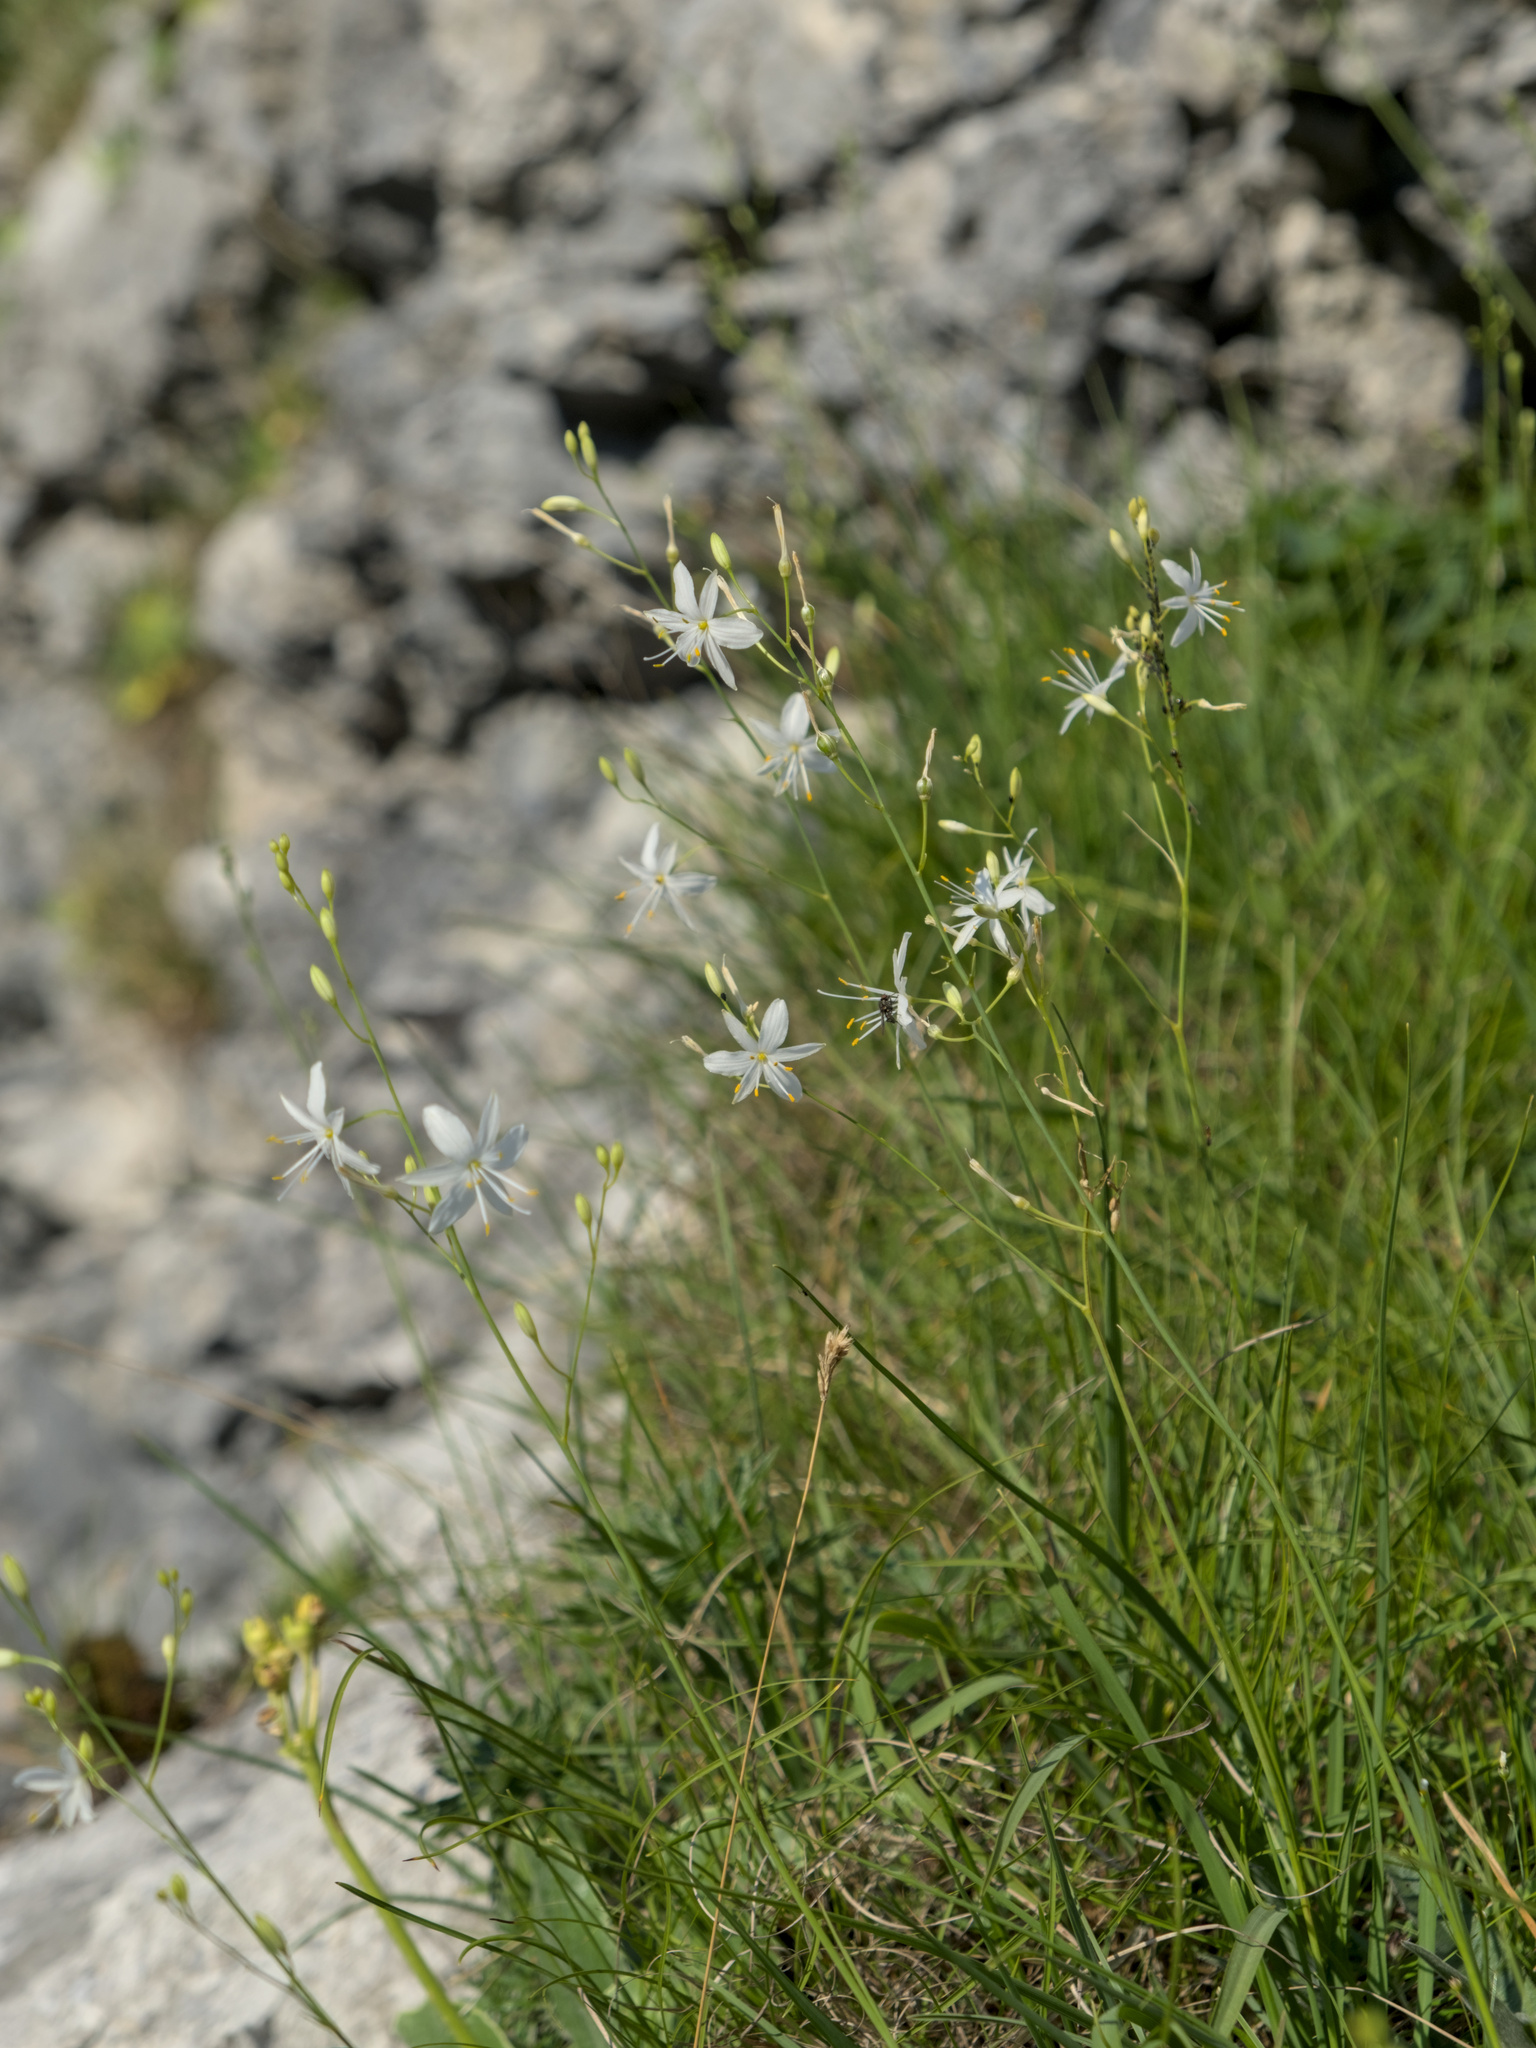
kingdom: Plantae
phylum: Tracheophyta
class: Liliopsida
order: Asparagales
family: Asparagaceae
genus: Anthericum
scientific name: Anthericum ramosum
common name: Branched st. bernard's-lily
